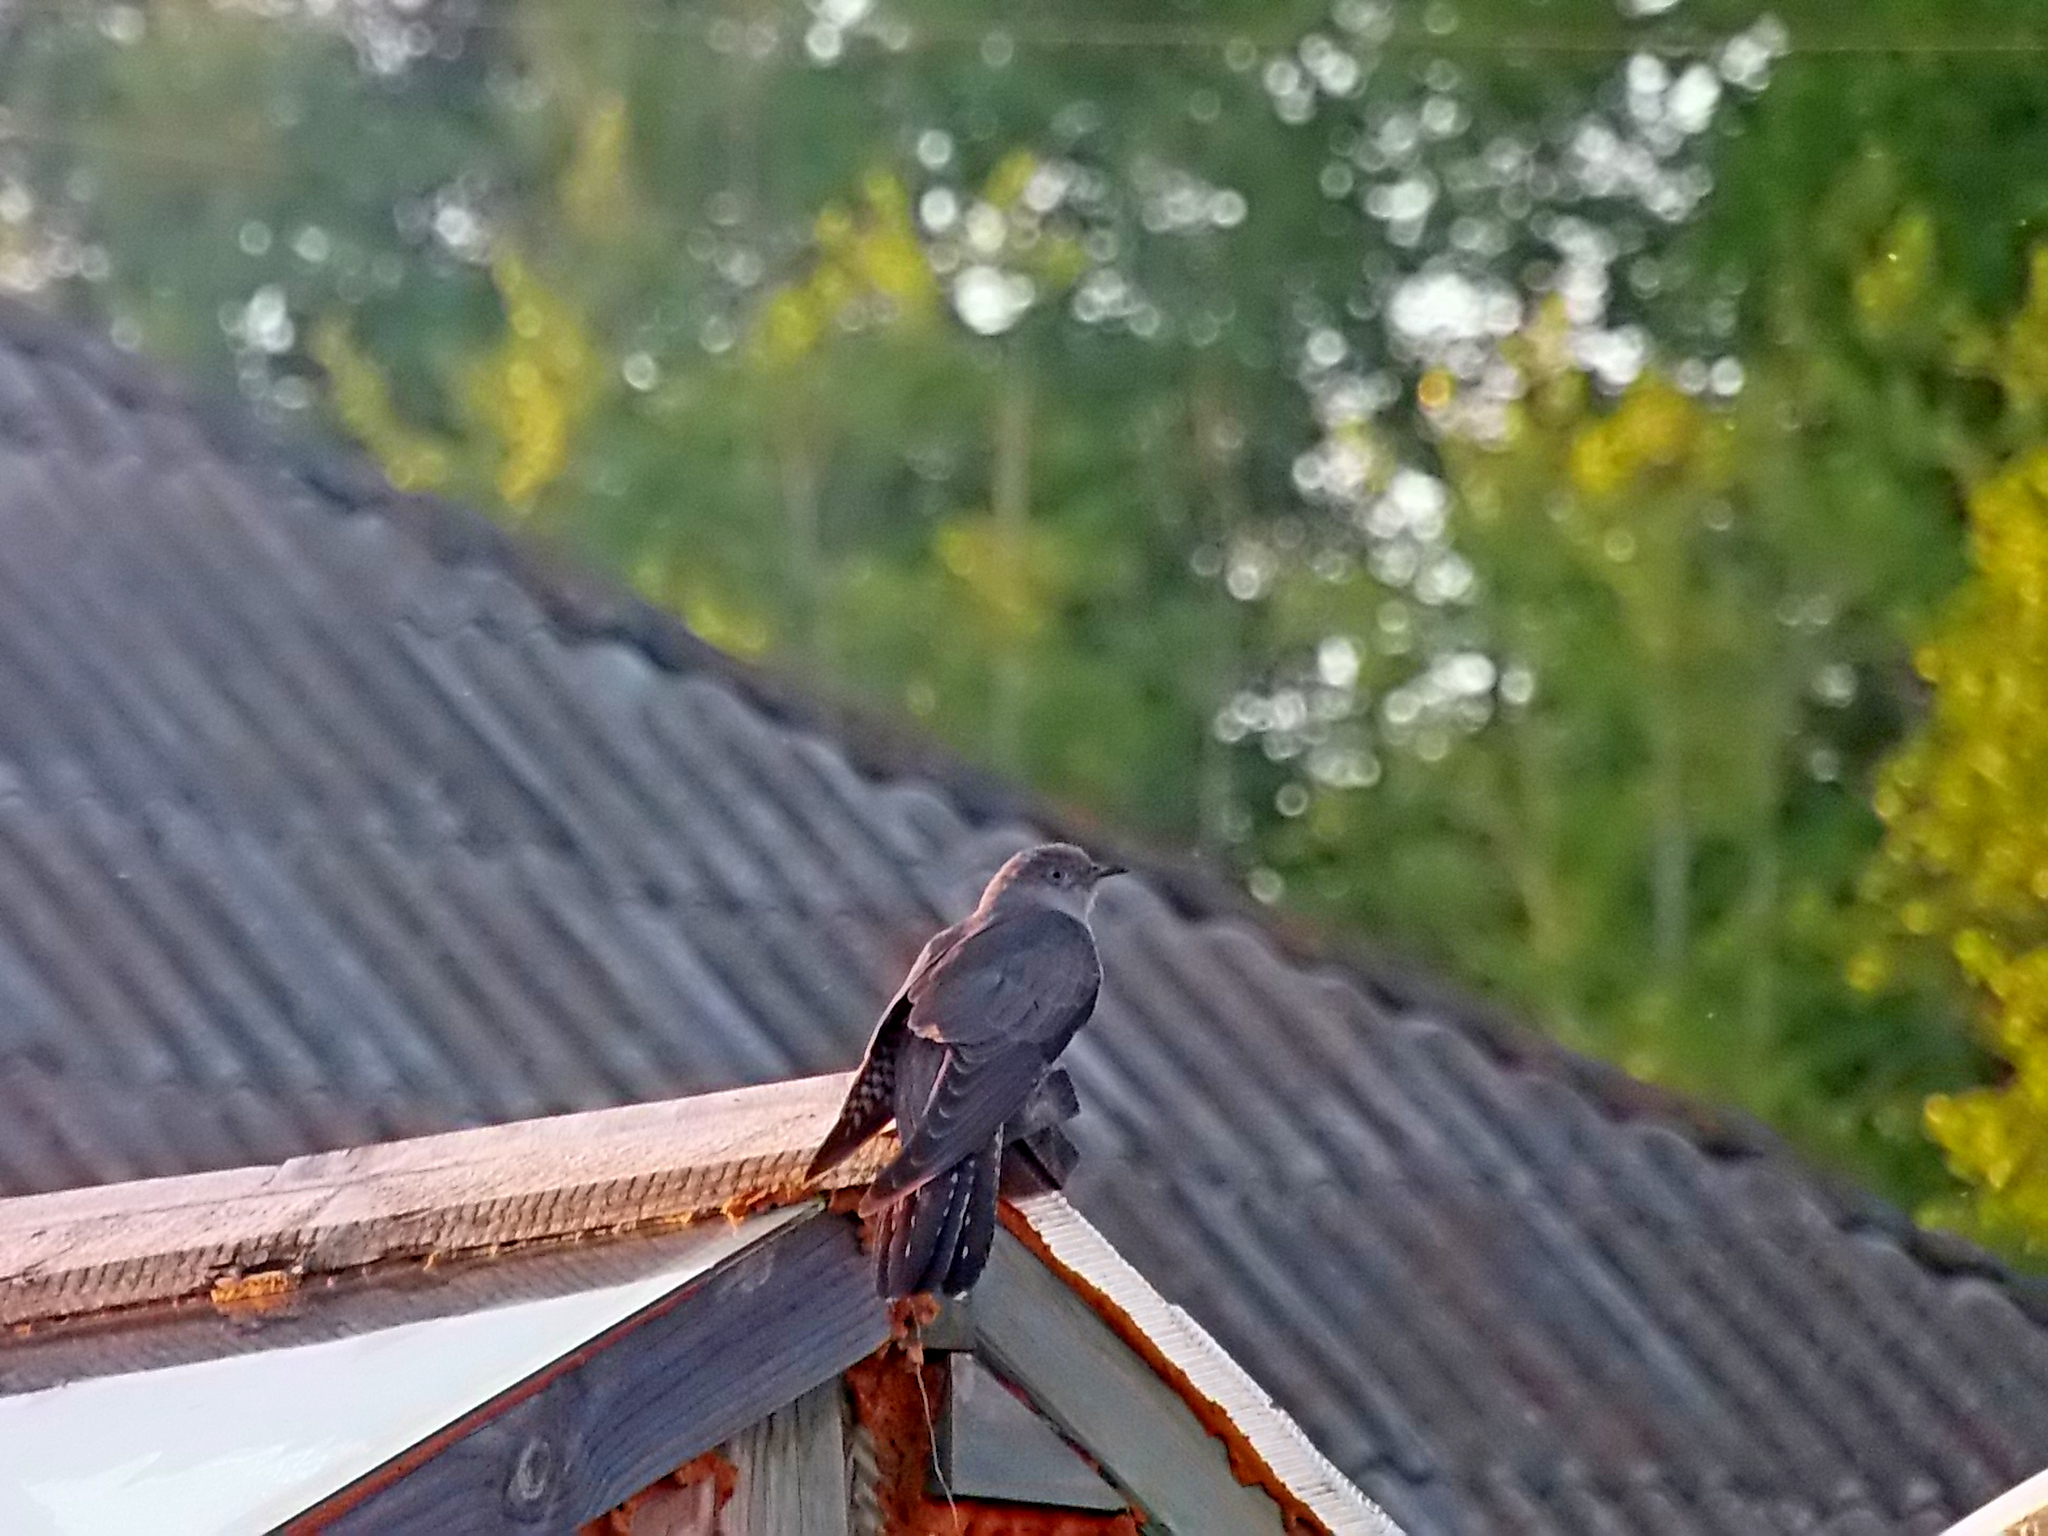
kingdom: Animalia
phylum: Chordata
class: Aves
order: Cuculiformes
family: Cuculidae
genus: Cuculus
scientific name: Cuculus canorus
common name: Common cuckoo
